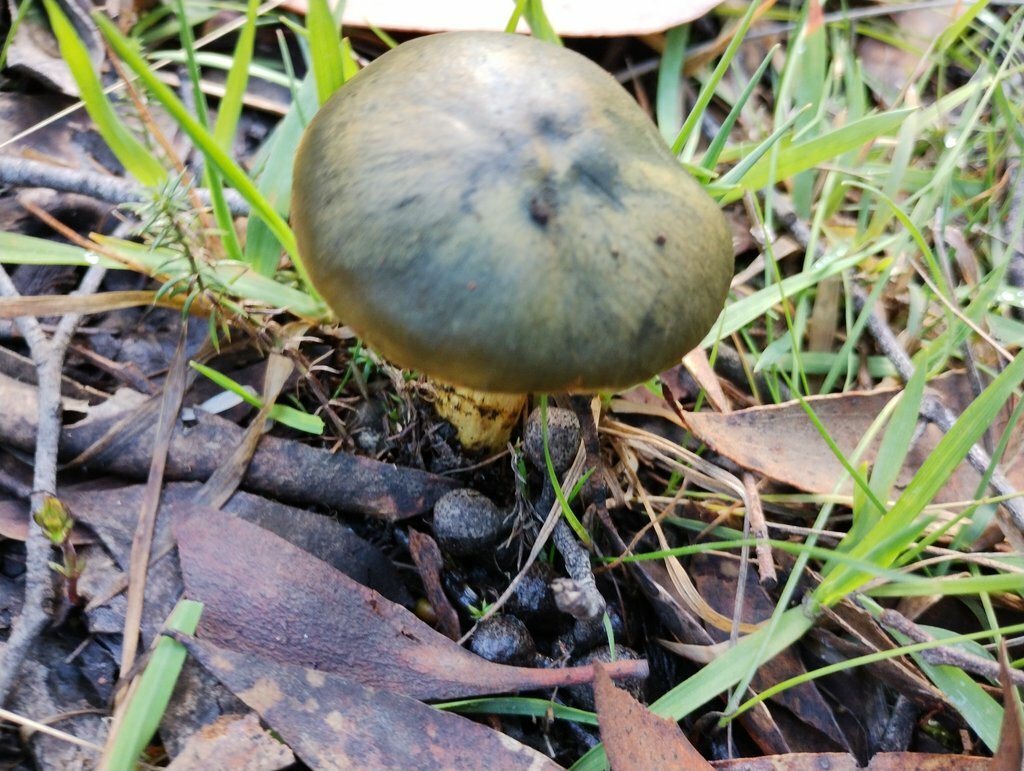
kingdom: Fungi
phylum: Basidiomycota
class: Agaricomycetes
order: Agaricales
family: Cortinariaceae
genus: Cortinarius
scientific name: Cortinarius austrovenetus
